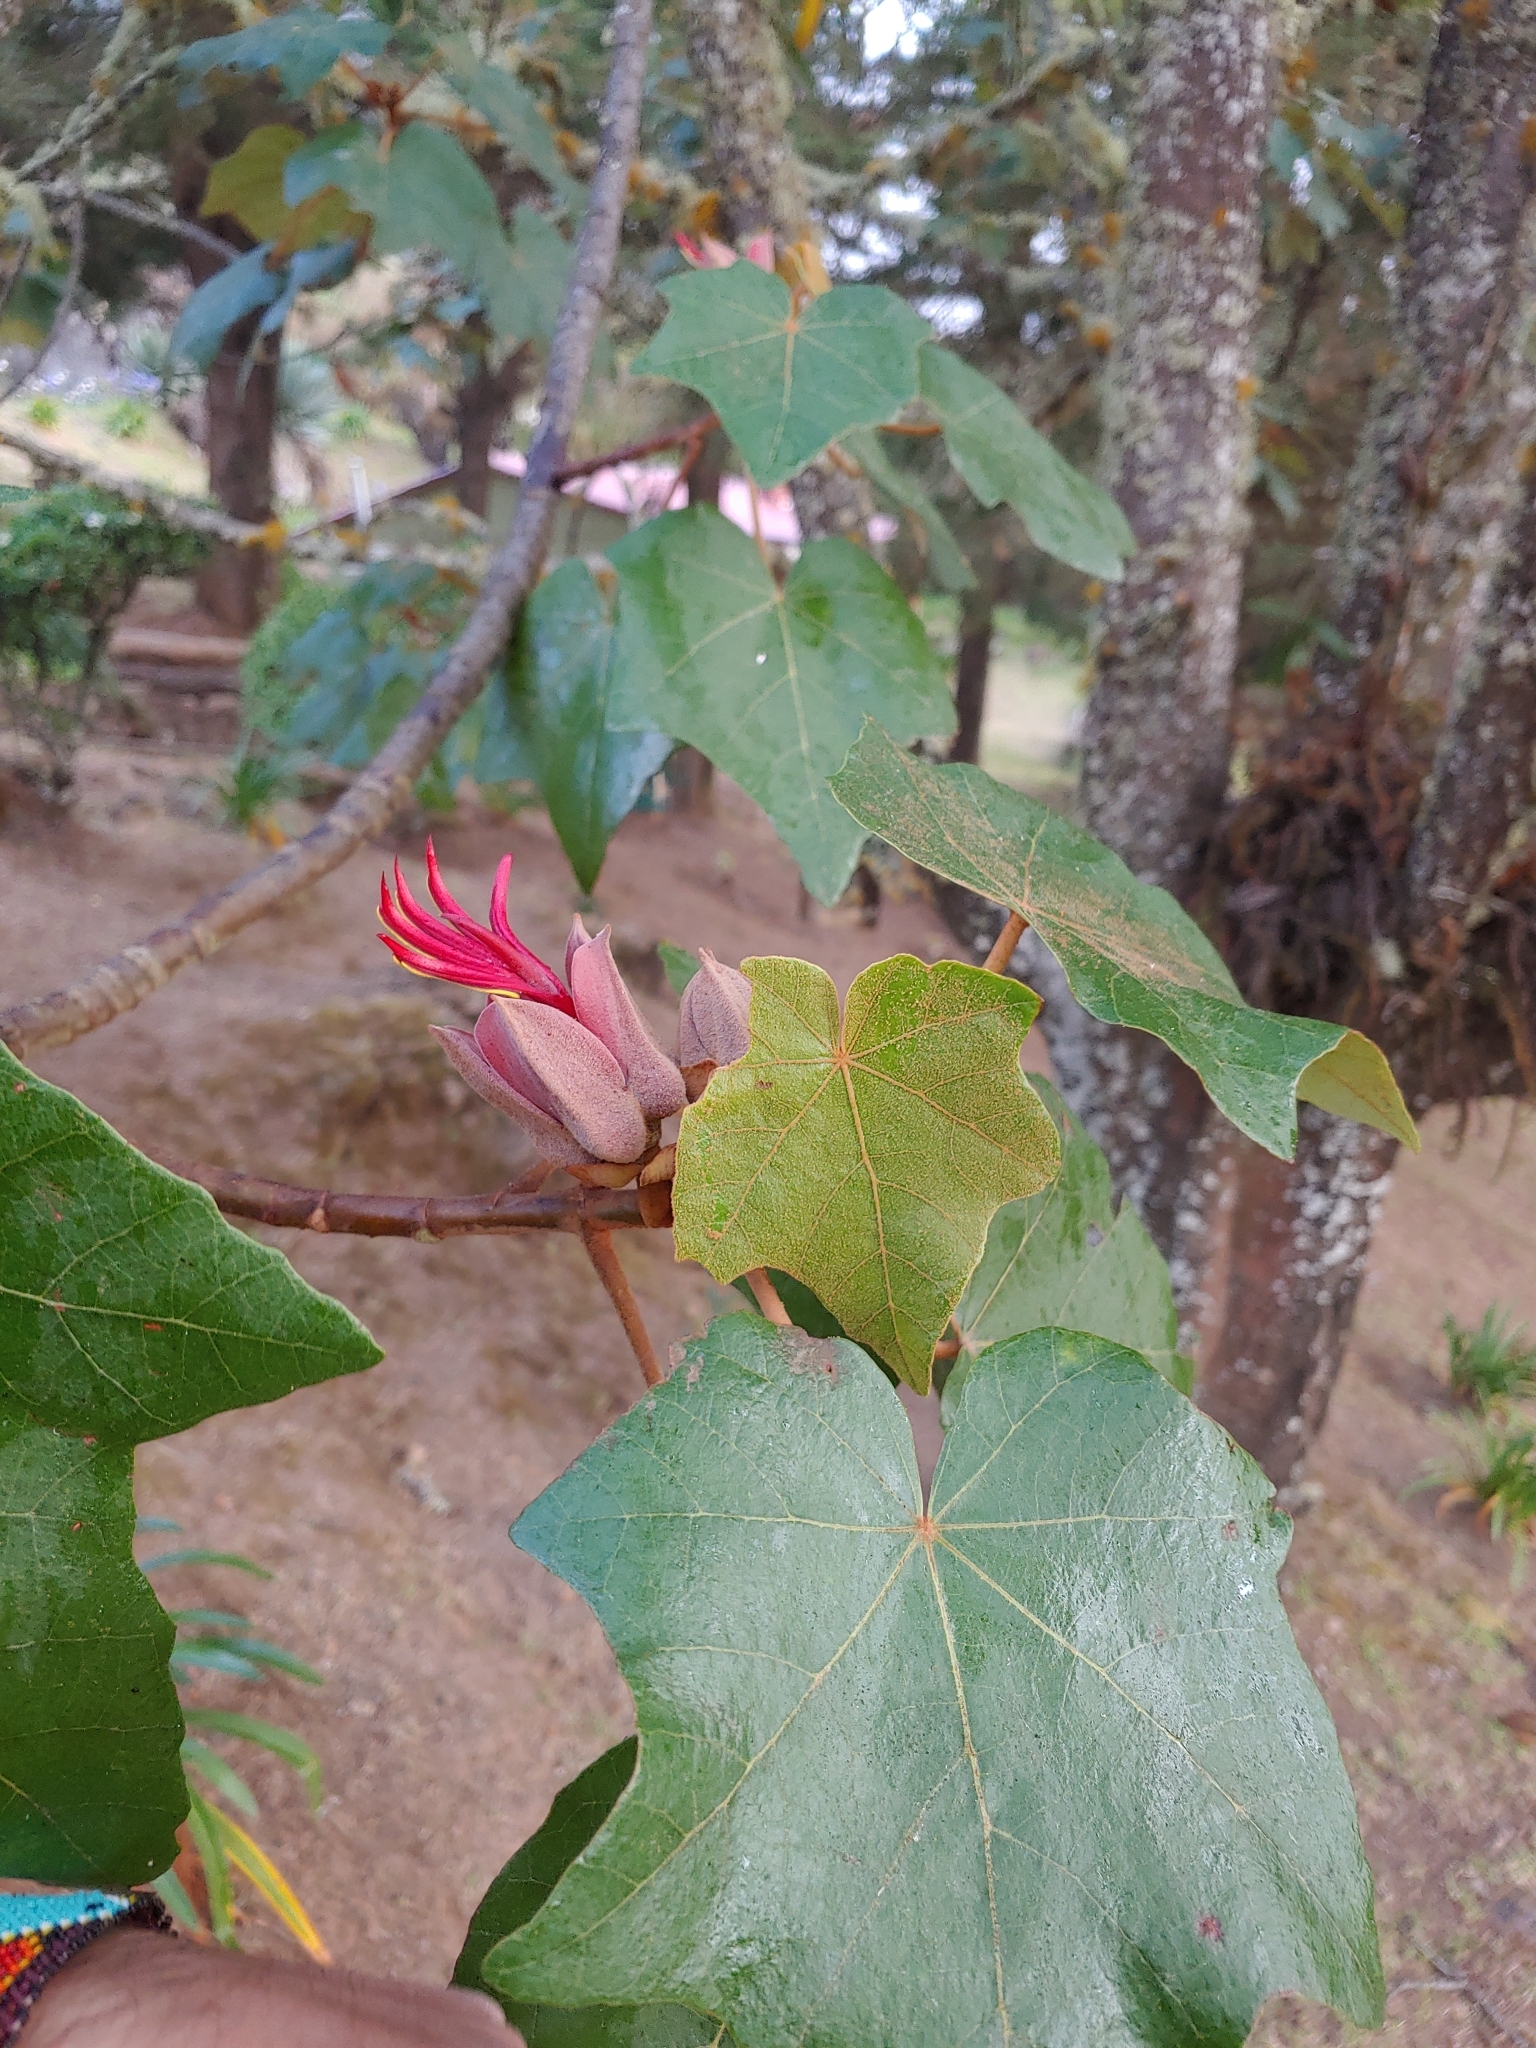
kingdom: Plantae
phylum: Tracheophyta
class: Magnoliopsida
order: Malvales
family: Malvaceae
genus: Chiranthodendron
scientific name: Chiranthodendron pentadactylon
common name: Mexican-hat-plant
